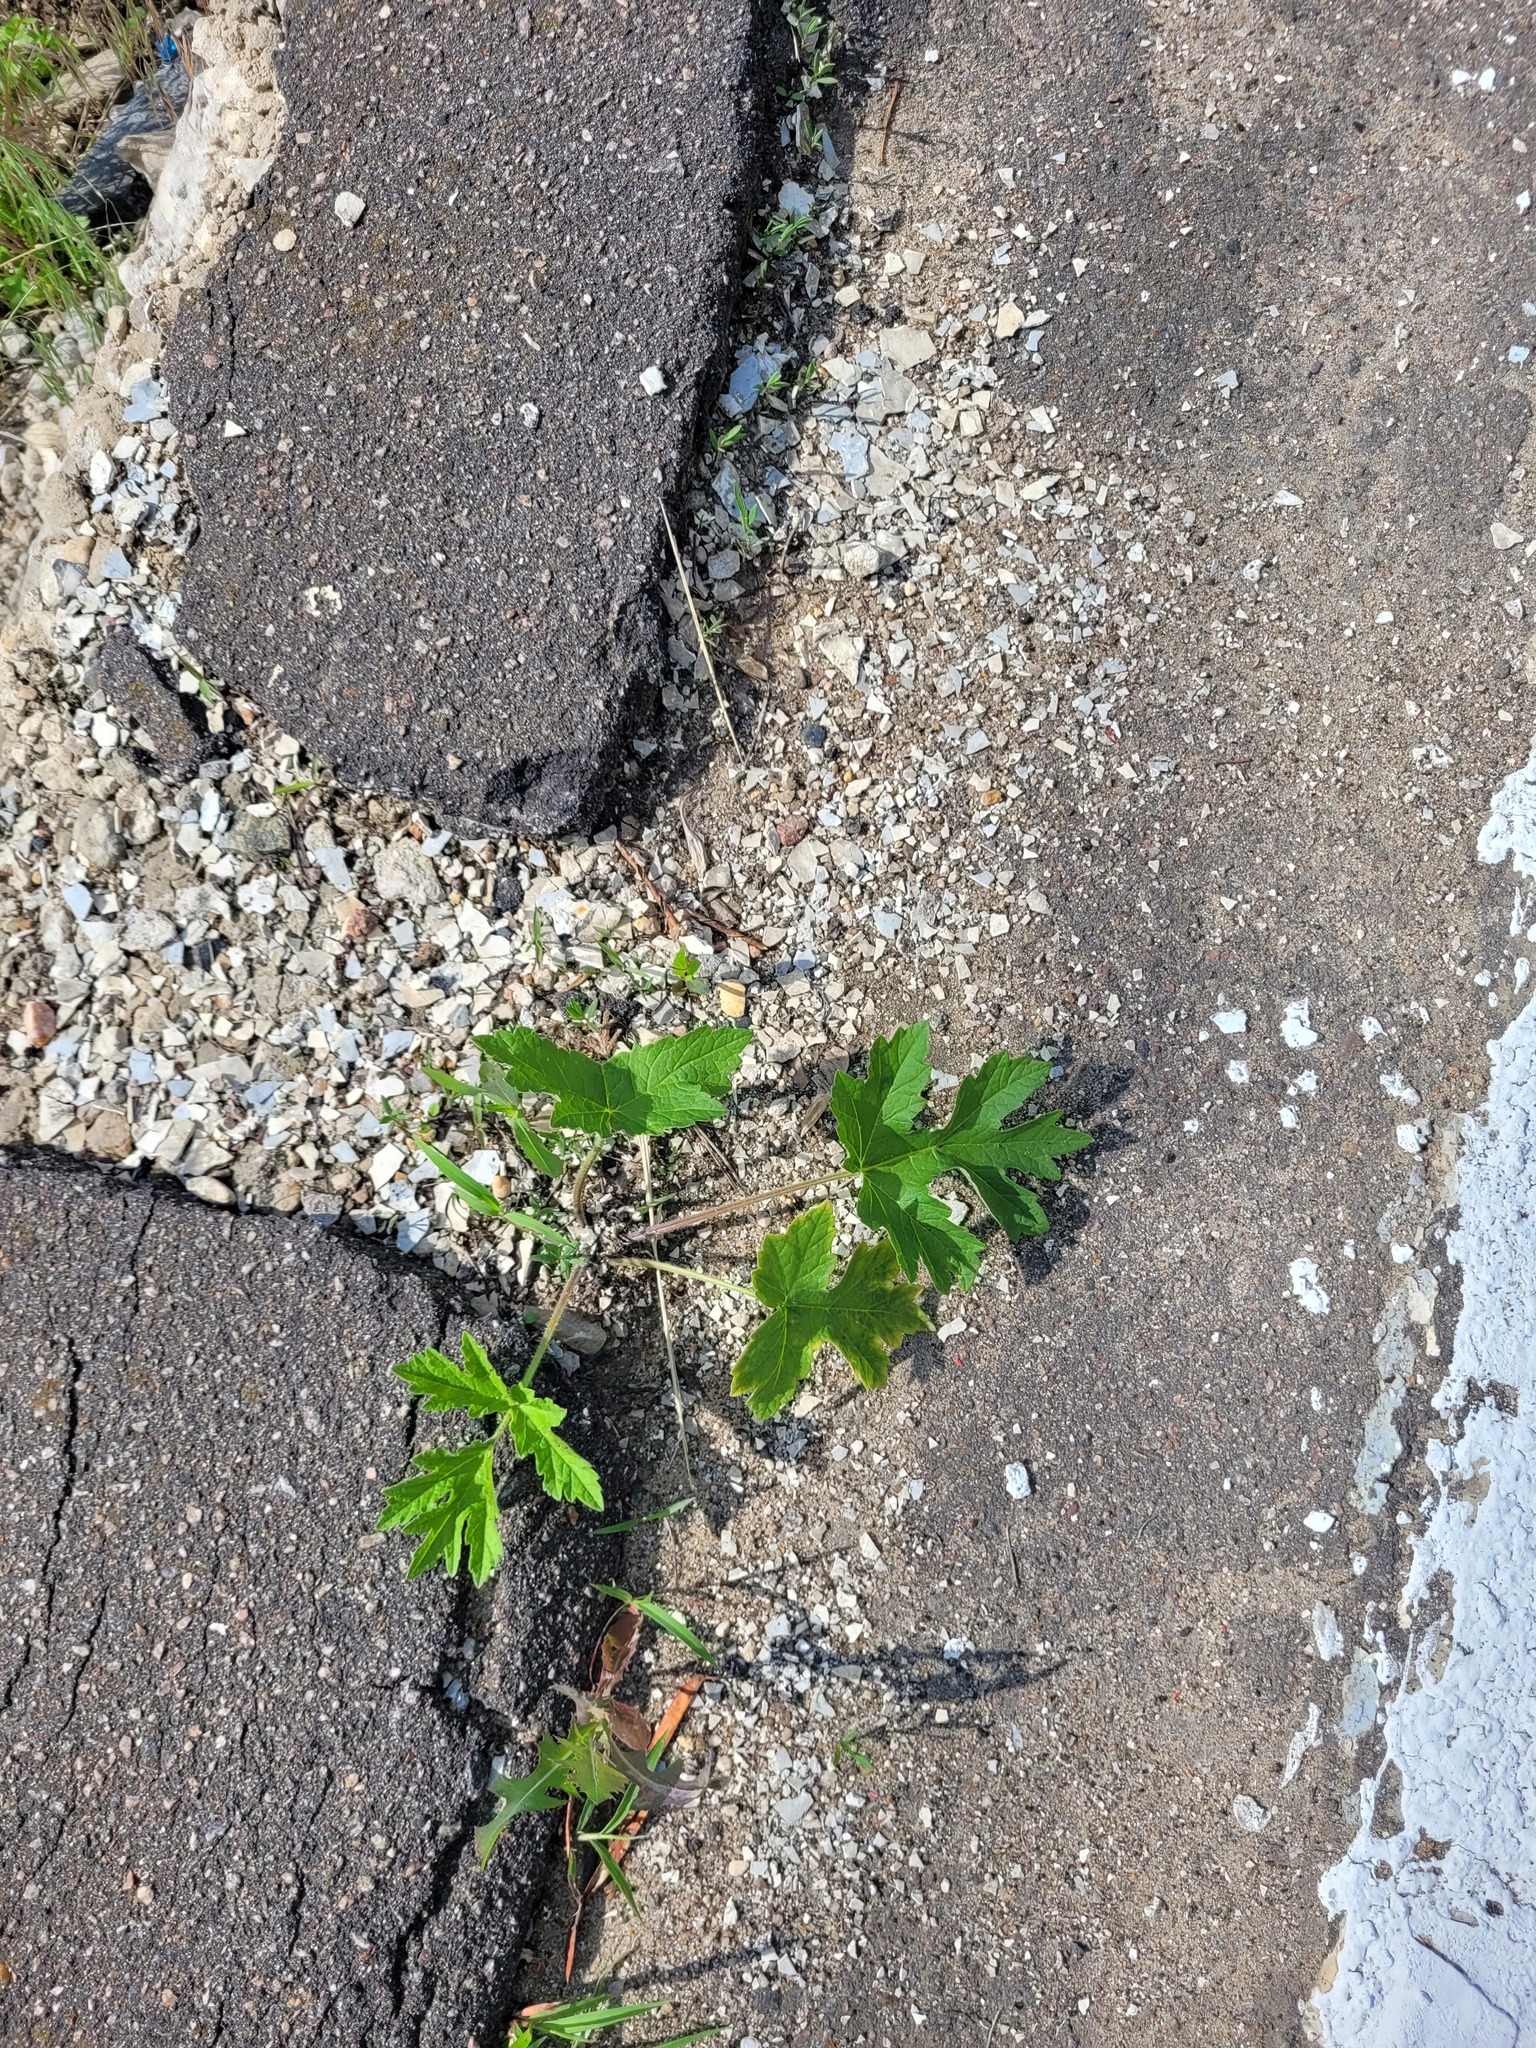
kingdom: Plantae
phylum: Tracheophyta
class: Magnoliopsida
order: Apiales
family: Apiaceae
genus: Heracleum
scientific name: Heracleum sphondylium
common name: Hogweed
